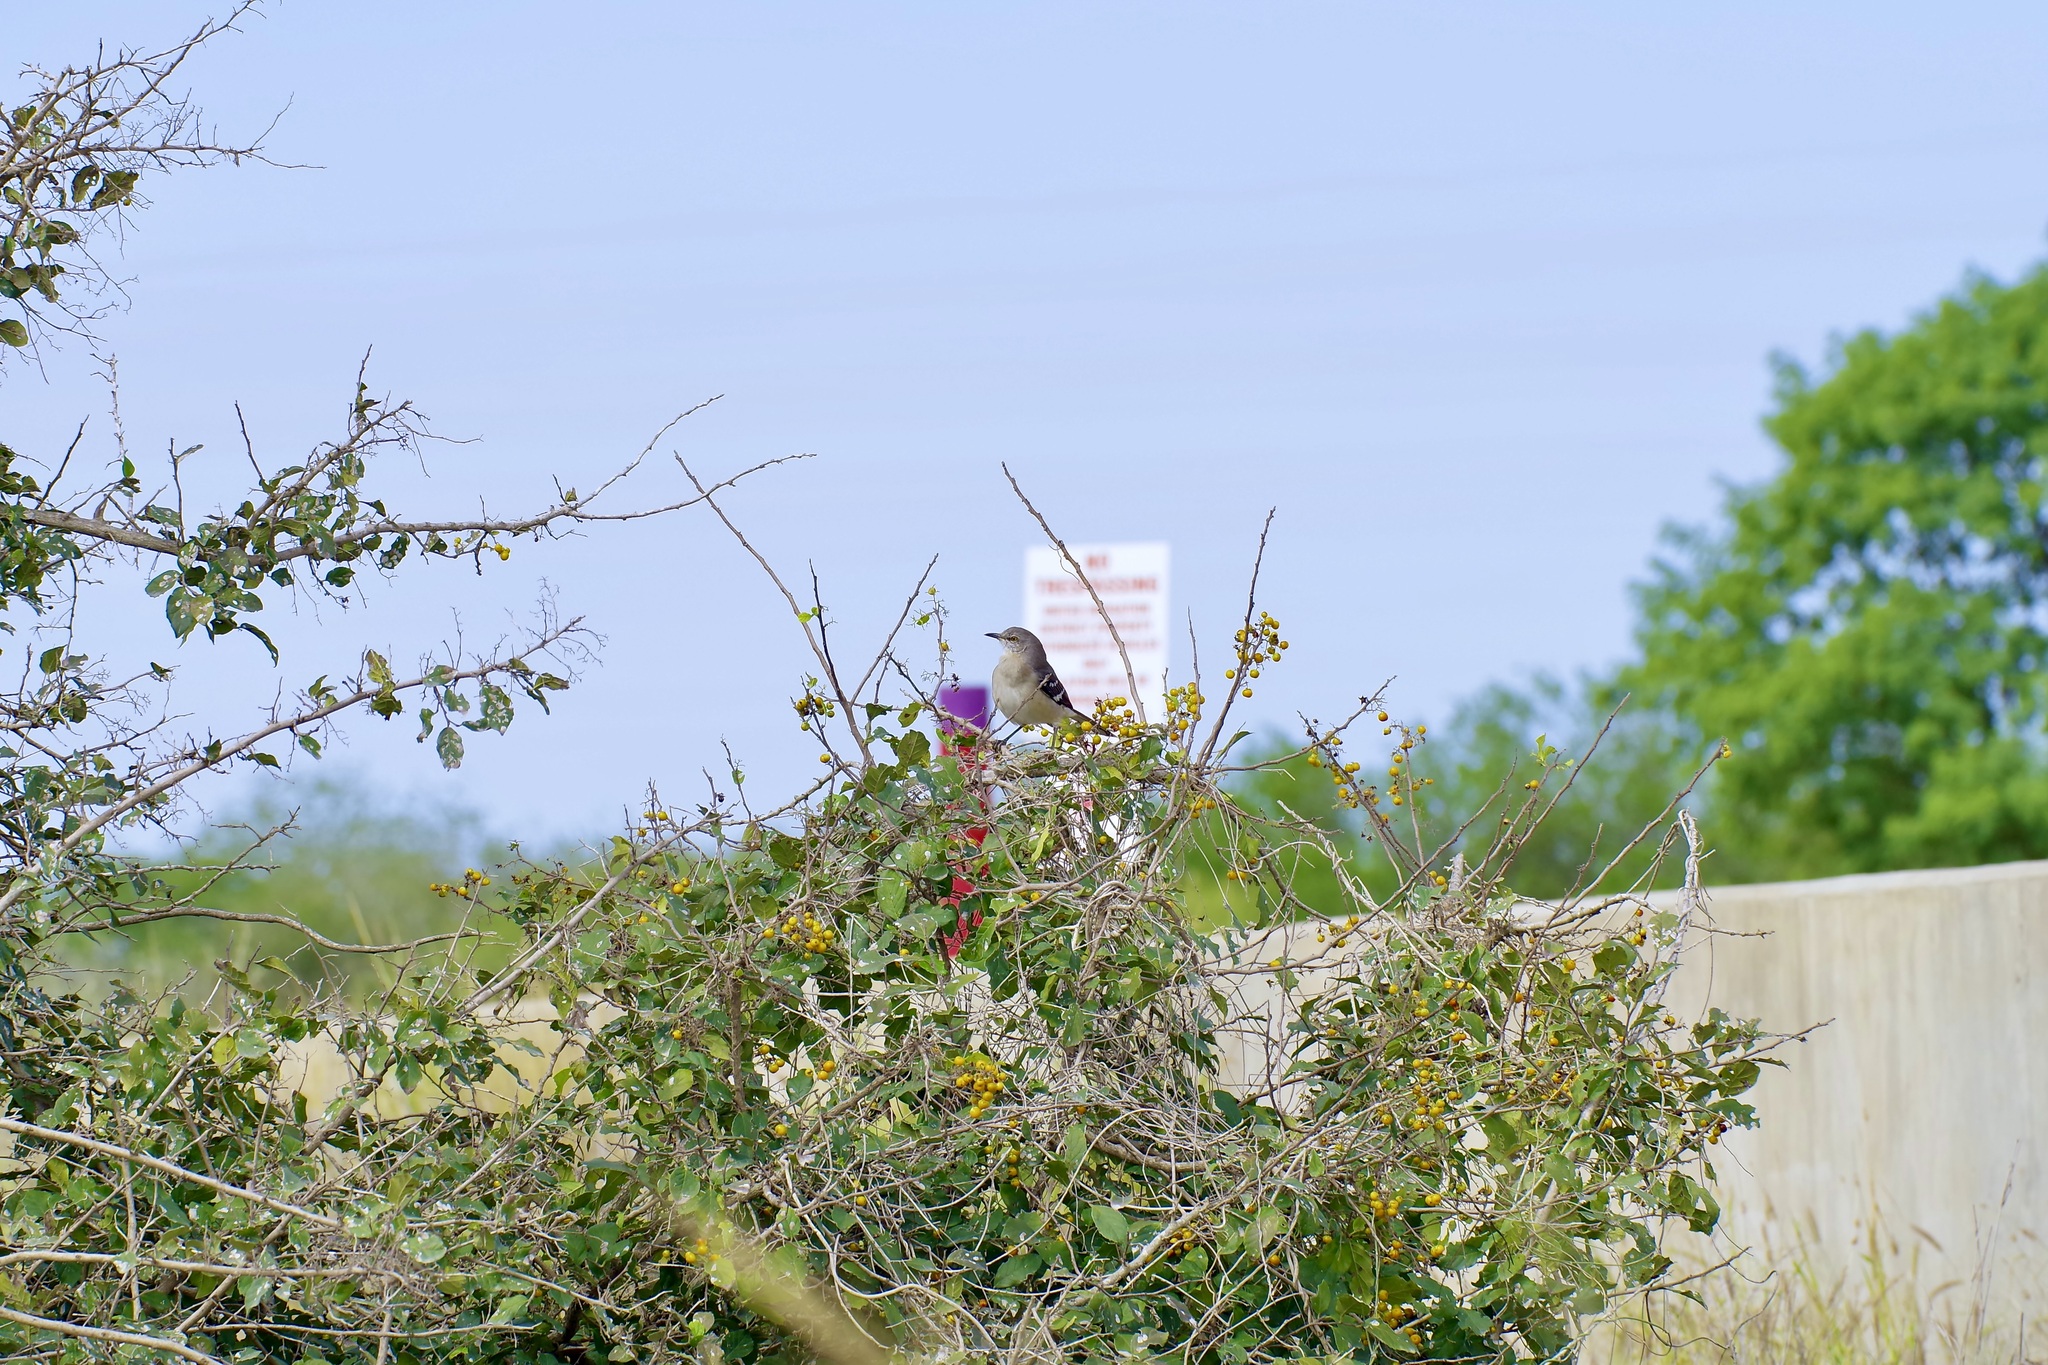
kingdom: Animalia
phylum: Chordata
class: Aves
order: Passeriformes
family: Mimidae
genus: Mimus
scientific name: Mimus polyglottos
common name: Northern mockingbird
